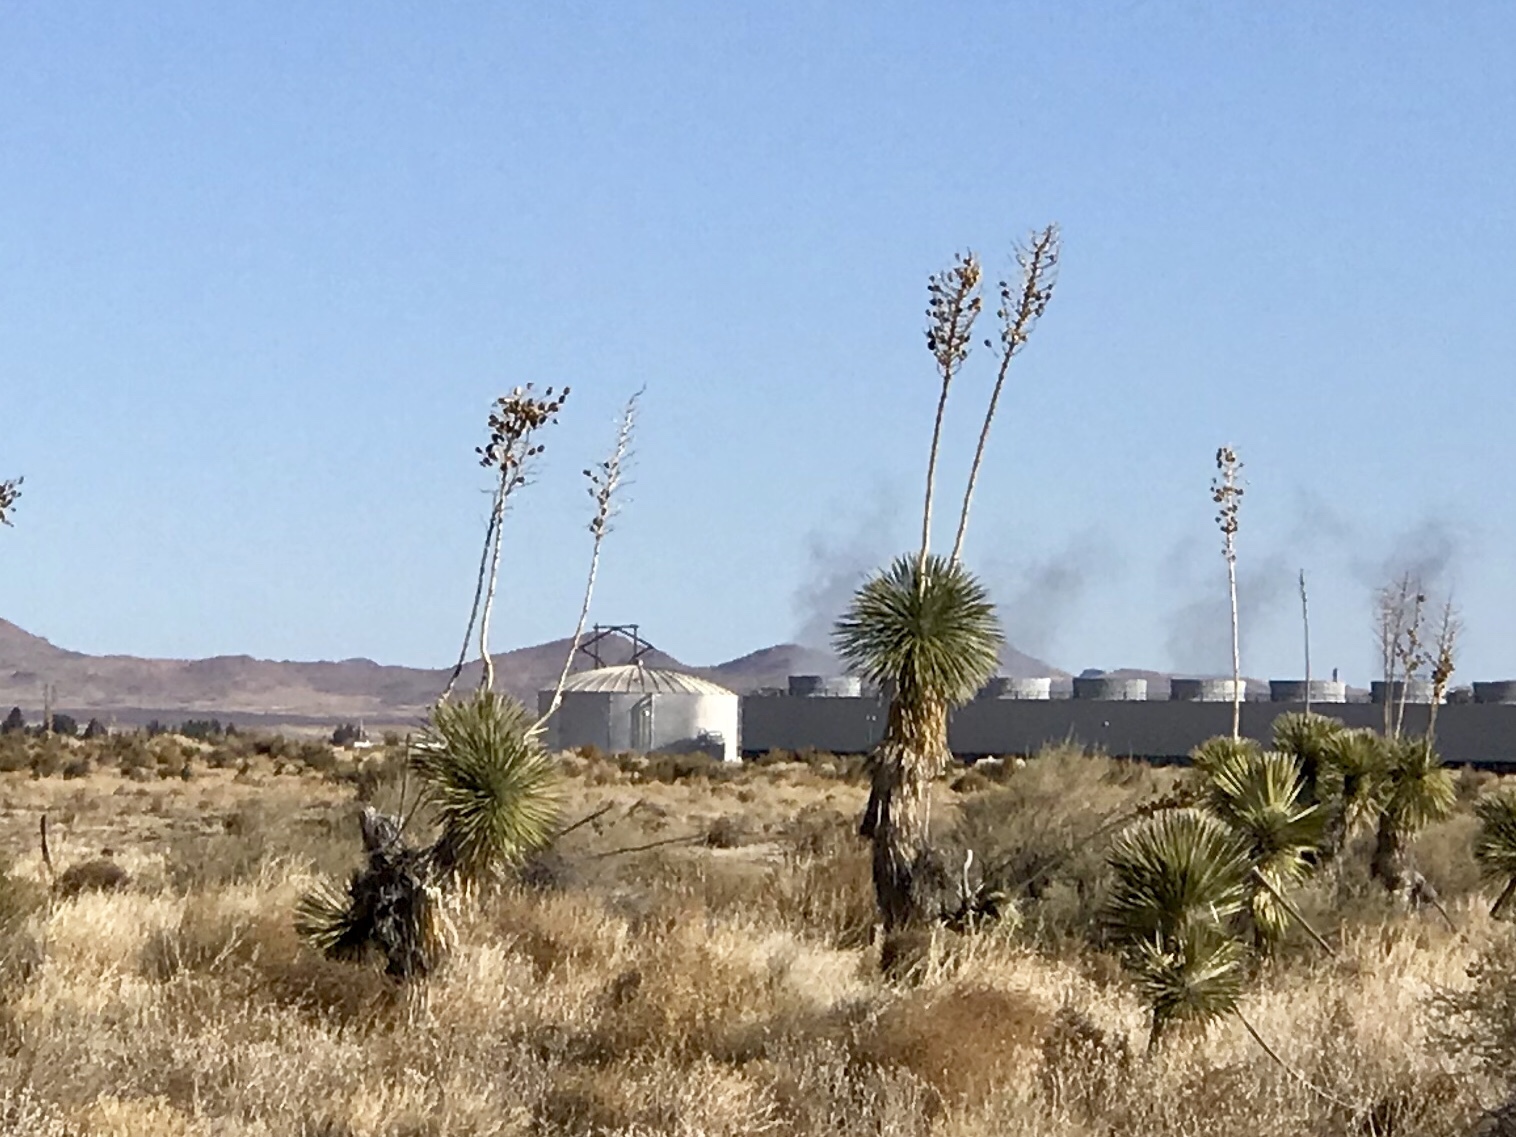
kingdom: Plantae
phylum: Tracheophyta
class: Liliopsida
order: Asparagales
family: Asparagaceae
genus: Yucca
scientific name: Yucca elata
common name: Palmella
